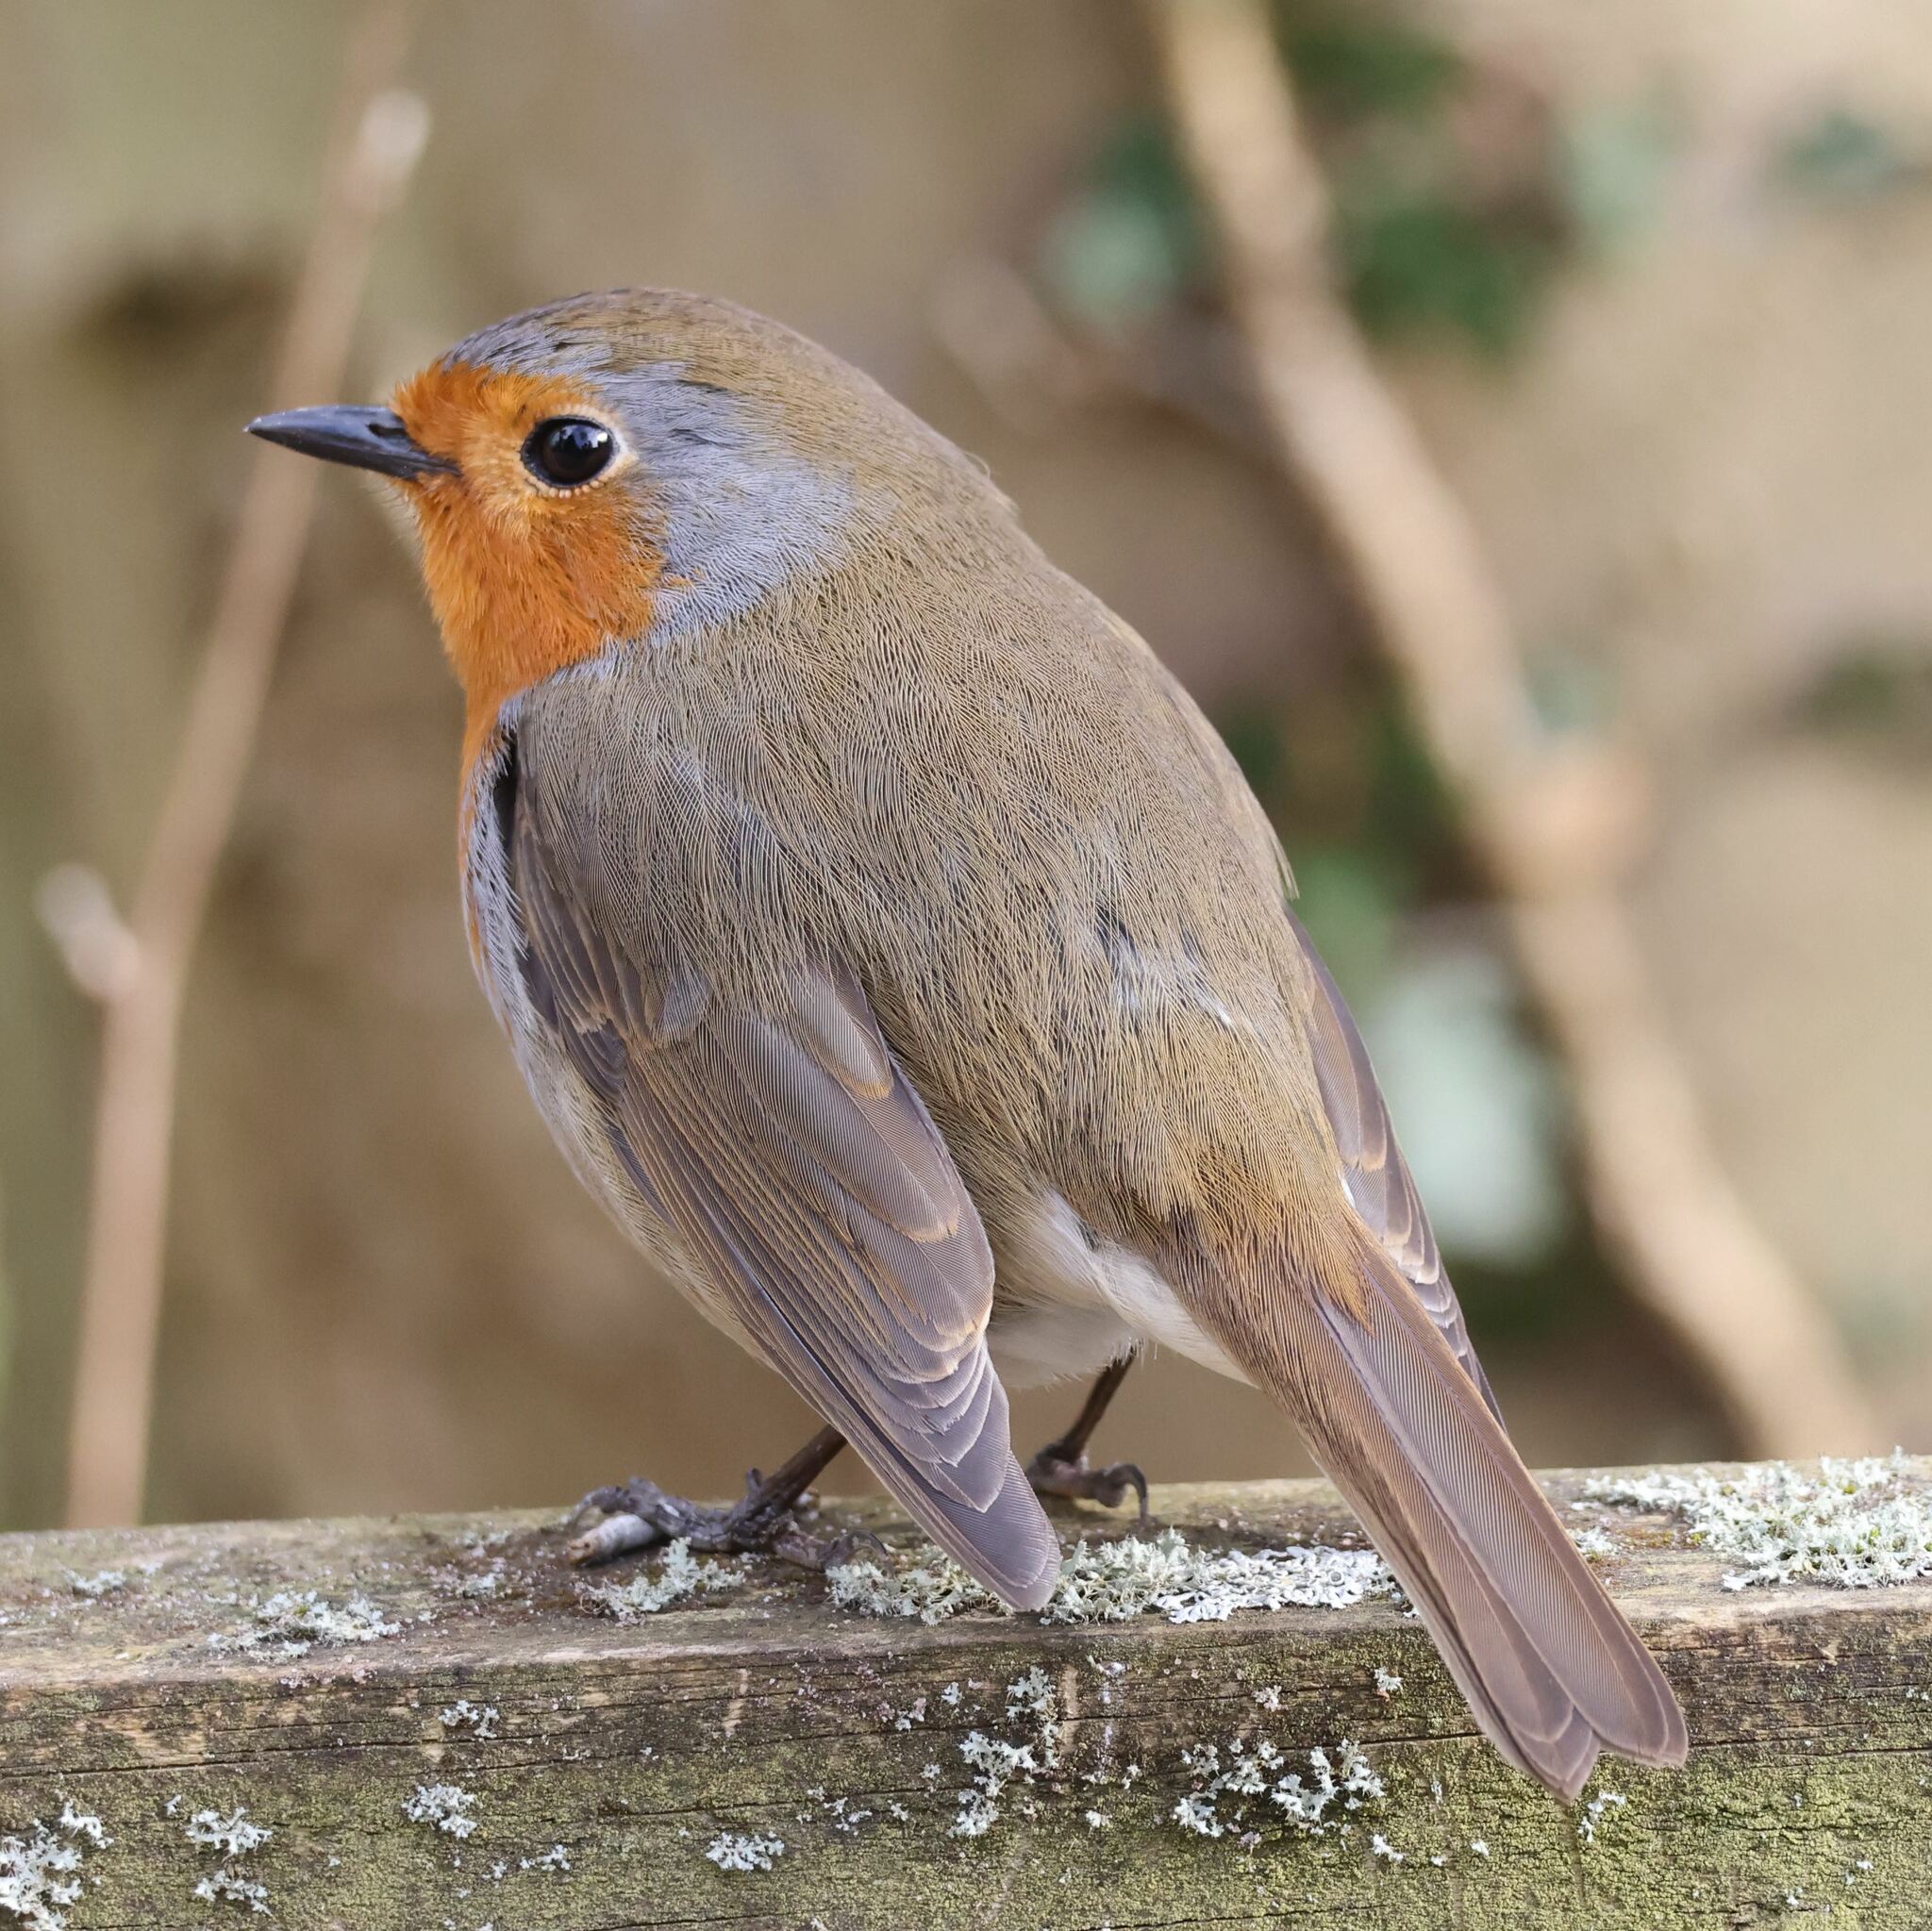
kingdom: Animalia
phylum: Chordata
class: Aves
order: Passeriformes
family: Muscicapidae
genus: Erithacus
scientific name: Erithacus rubecula
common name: European robin
